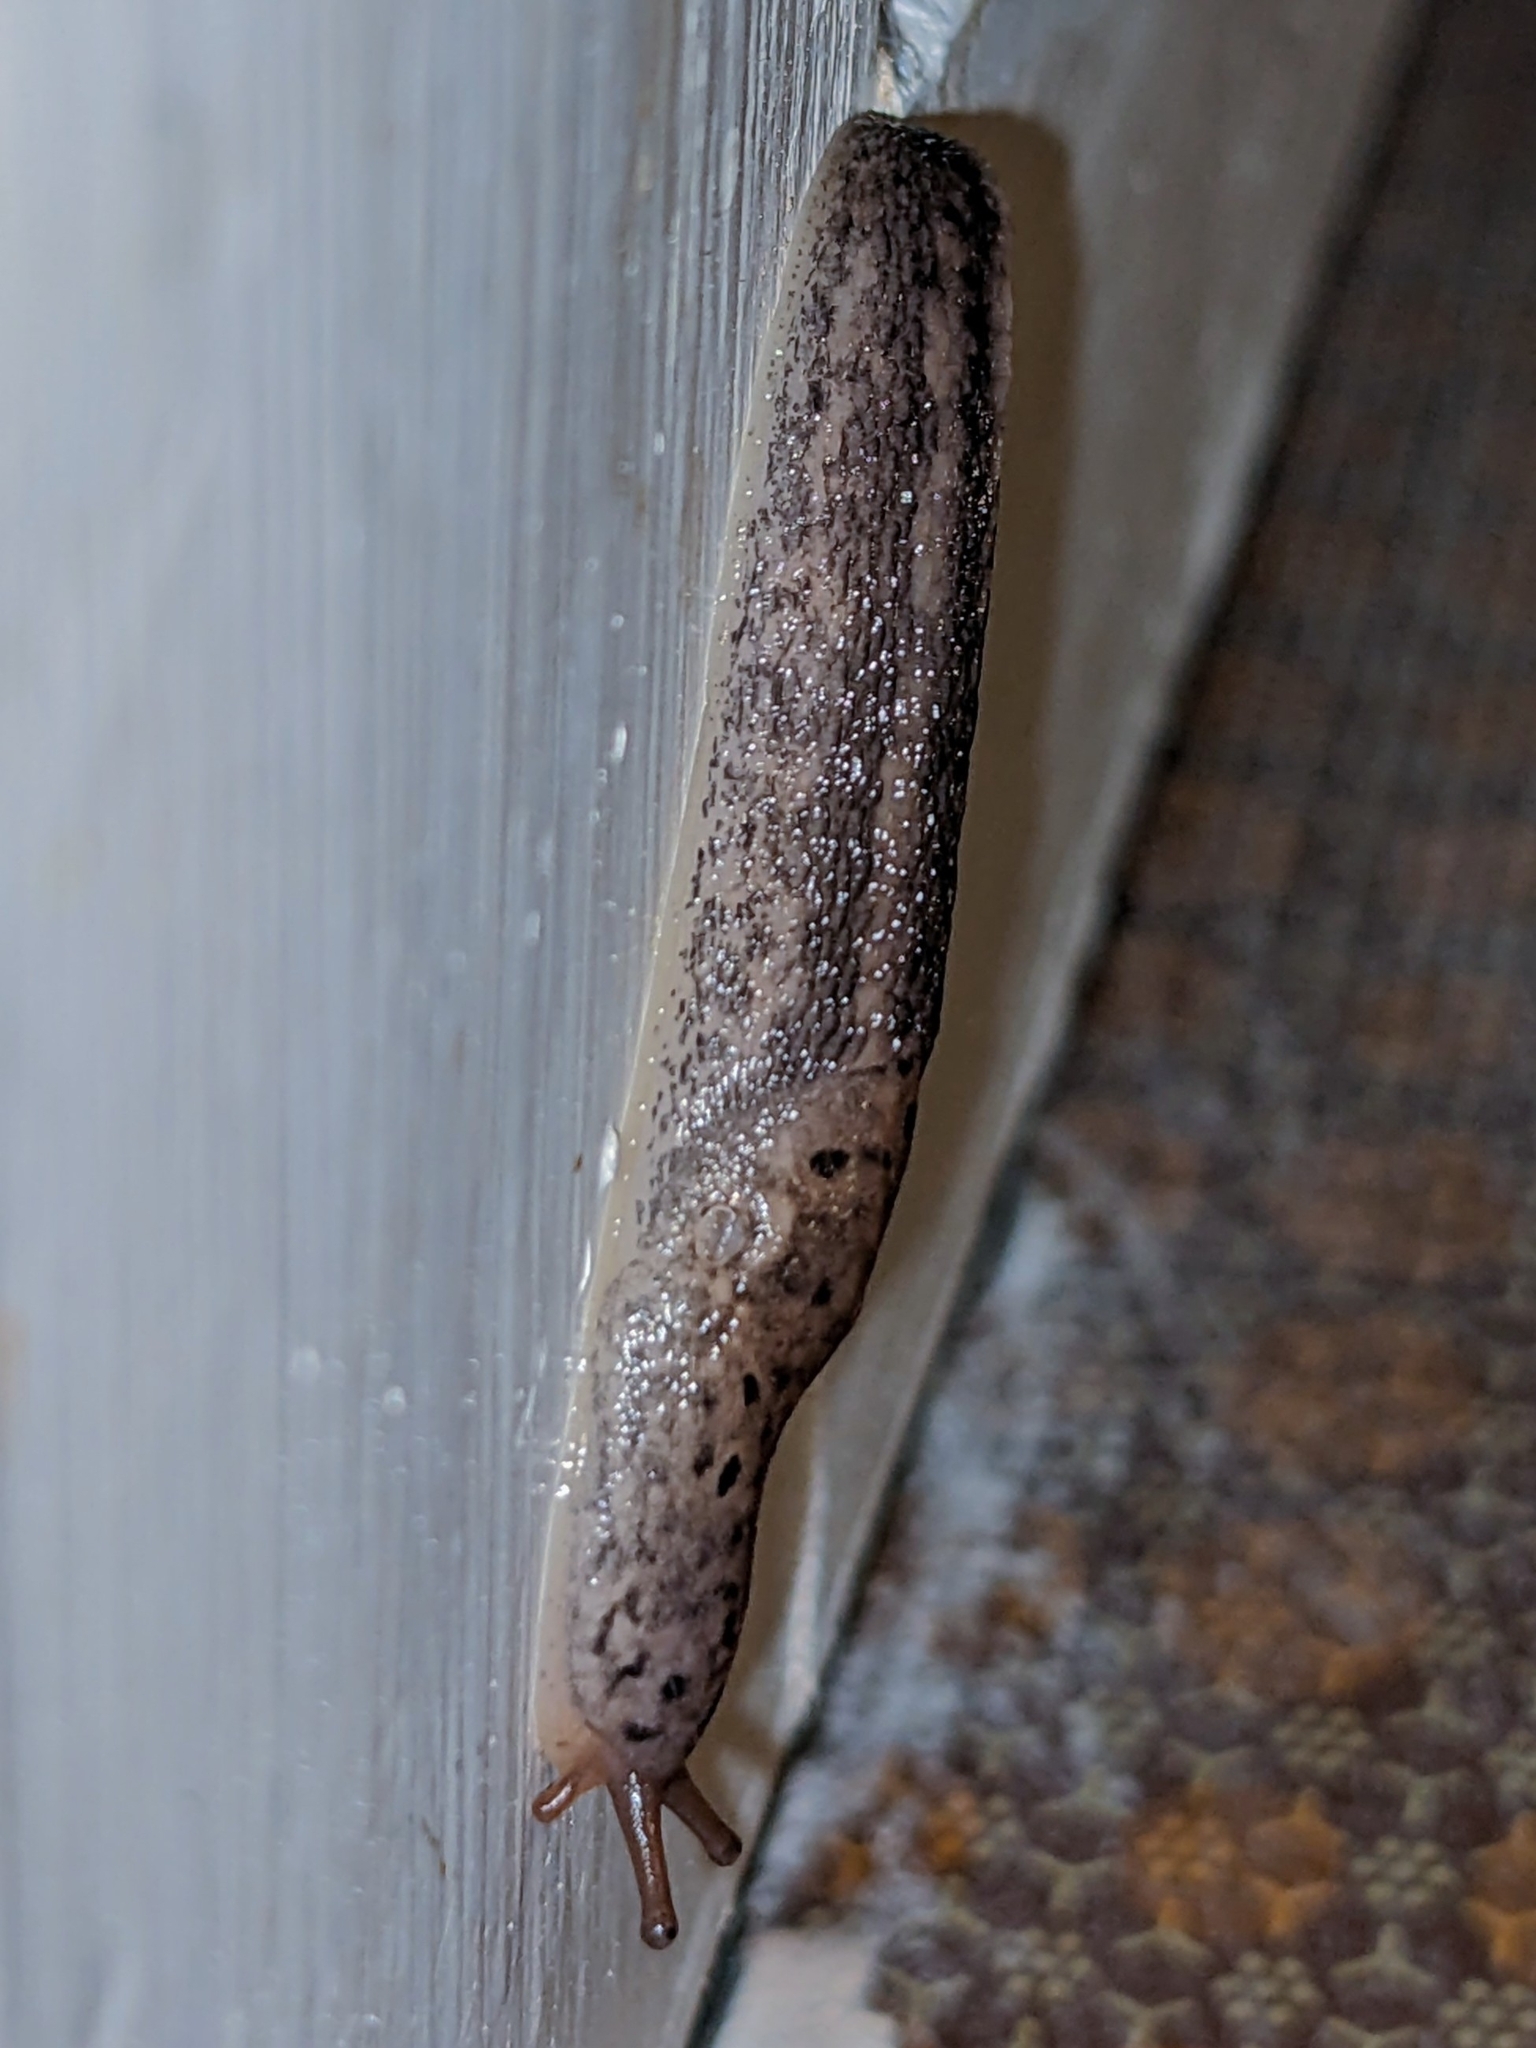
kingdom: Animalia
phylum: Mollusca
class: Gastropoda
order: Stylommatophora
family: Limacidae
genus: Limax
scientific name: Limax maximus
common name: Great grey slug
